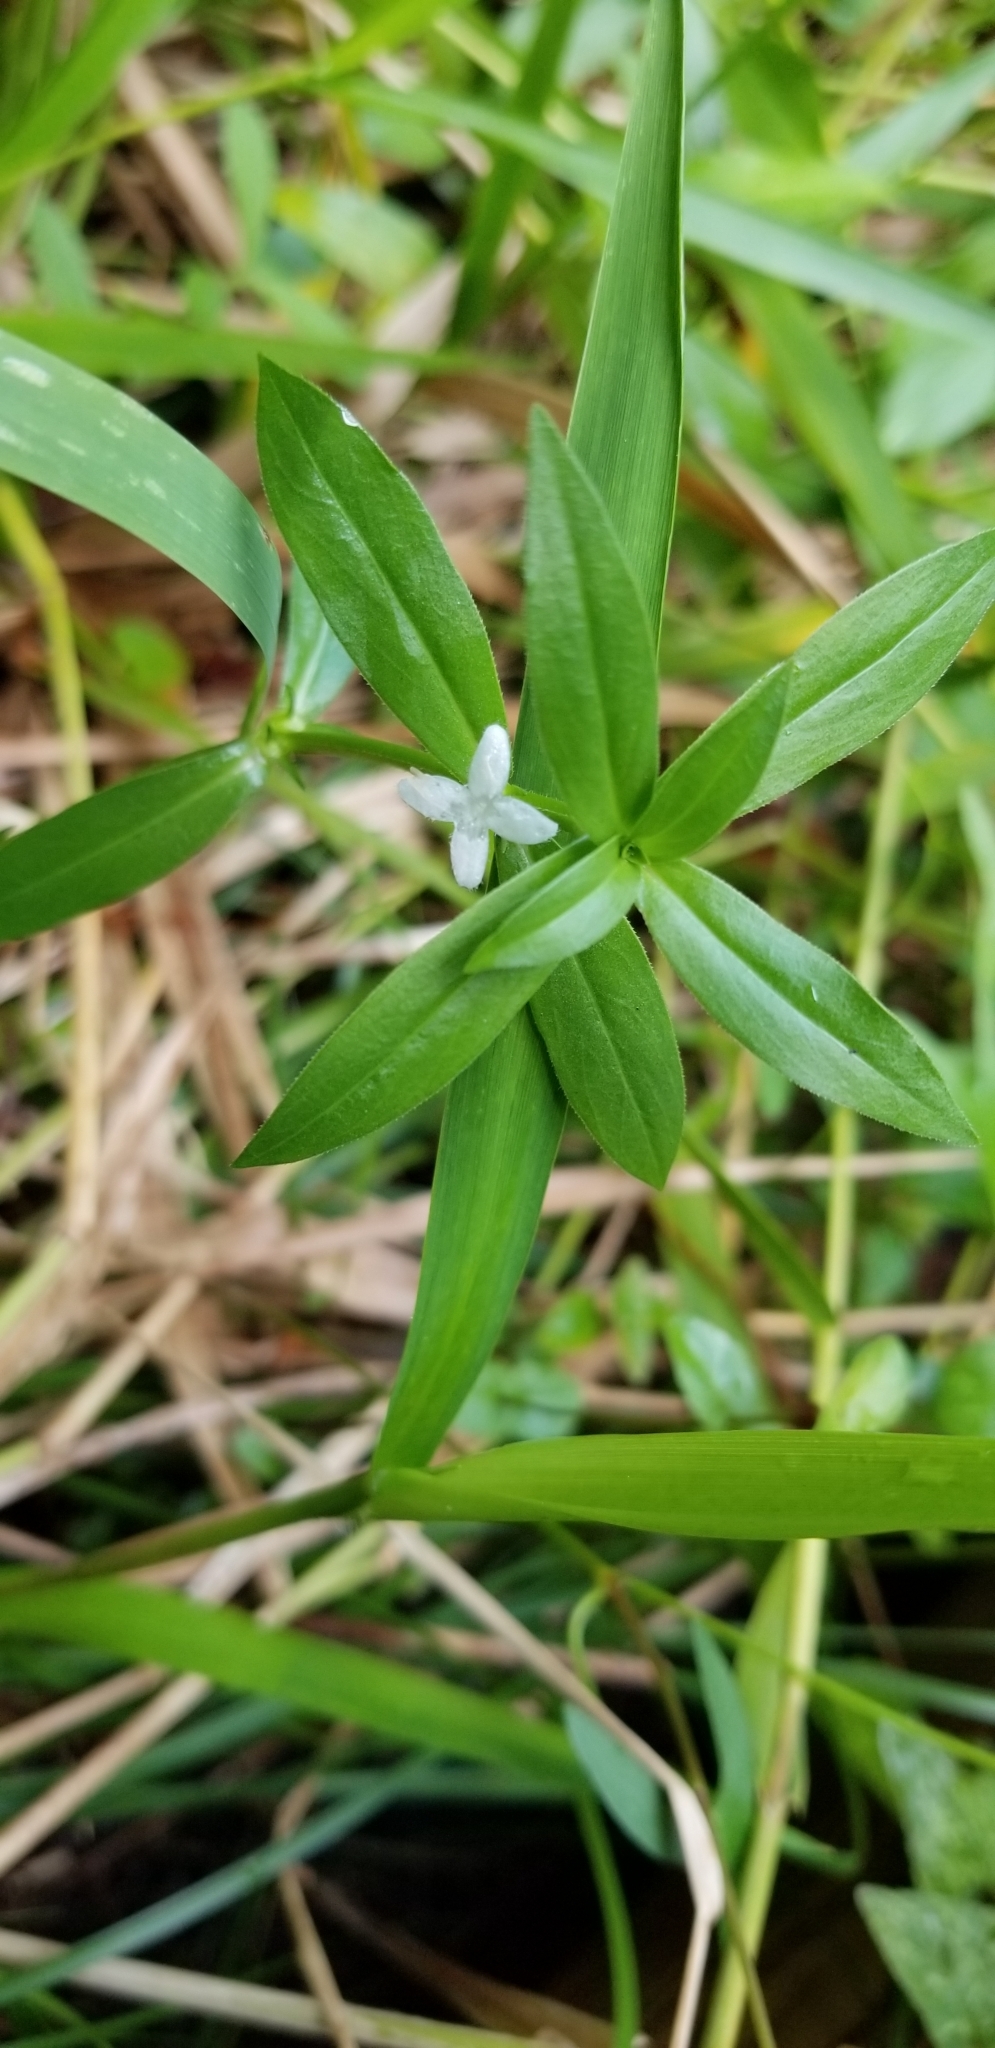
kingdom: Plantae
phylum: Tracheophyta
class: Magnoliopsida
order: Gentianales
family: Rubiaceae
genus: Diodia
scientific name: Diodia virginiana
